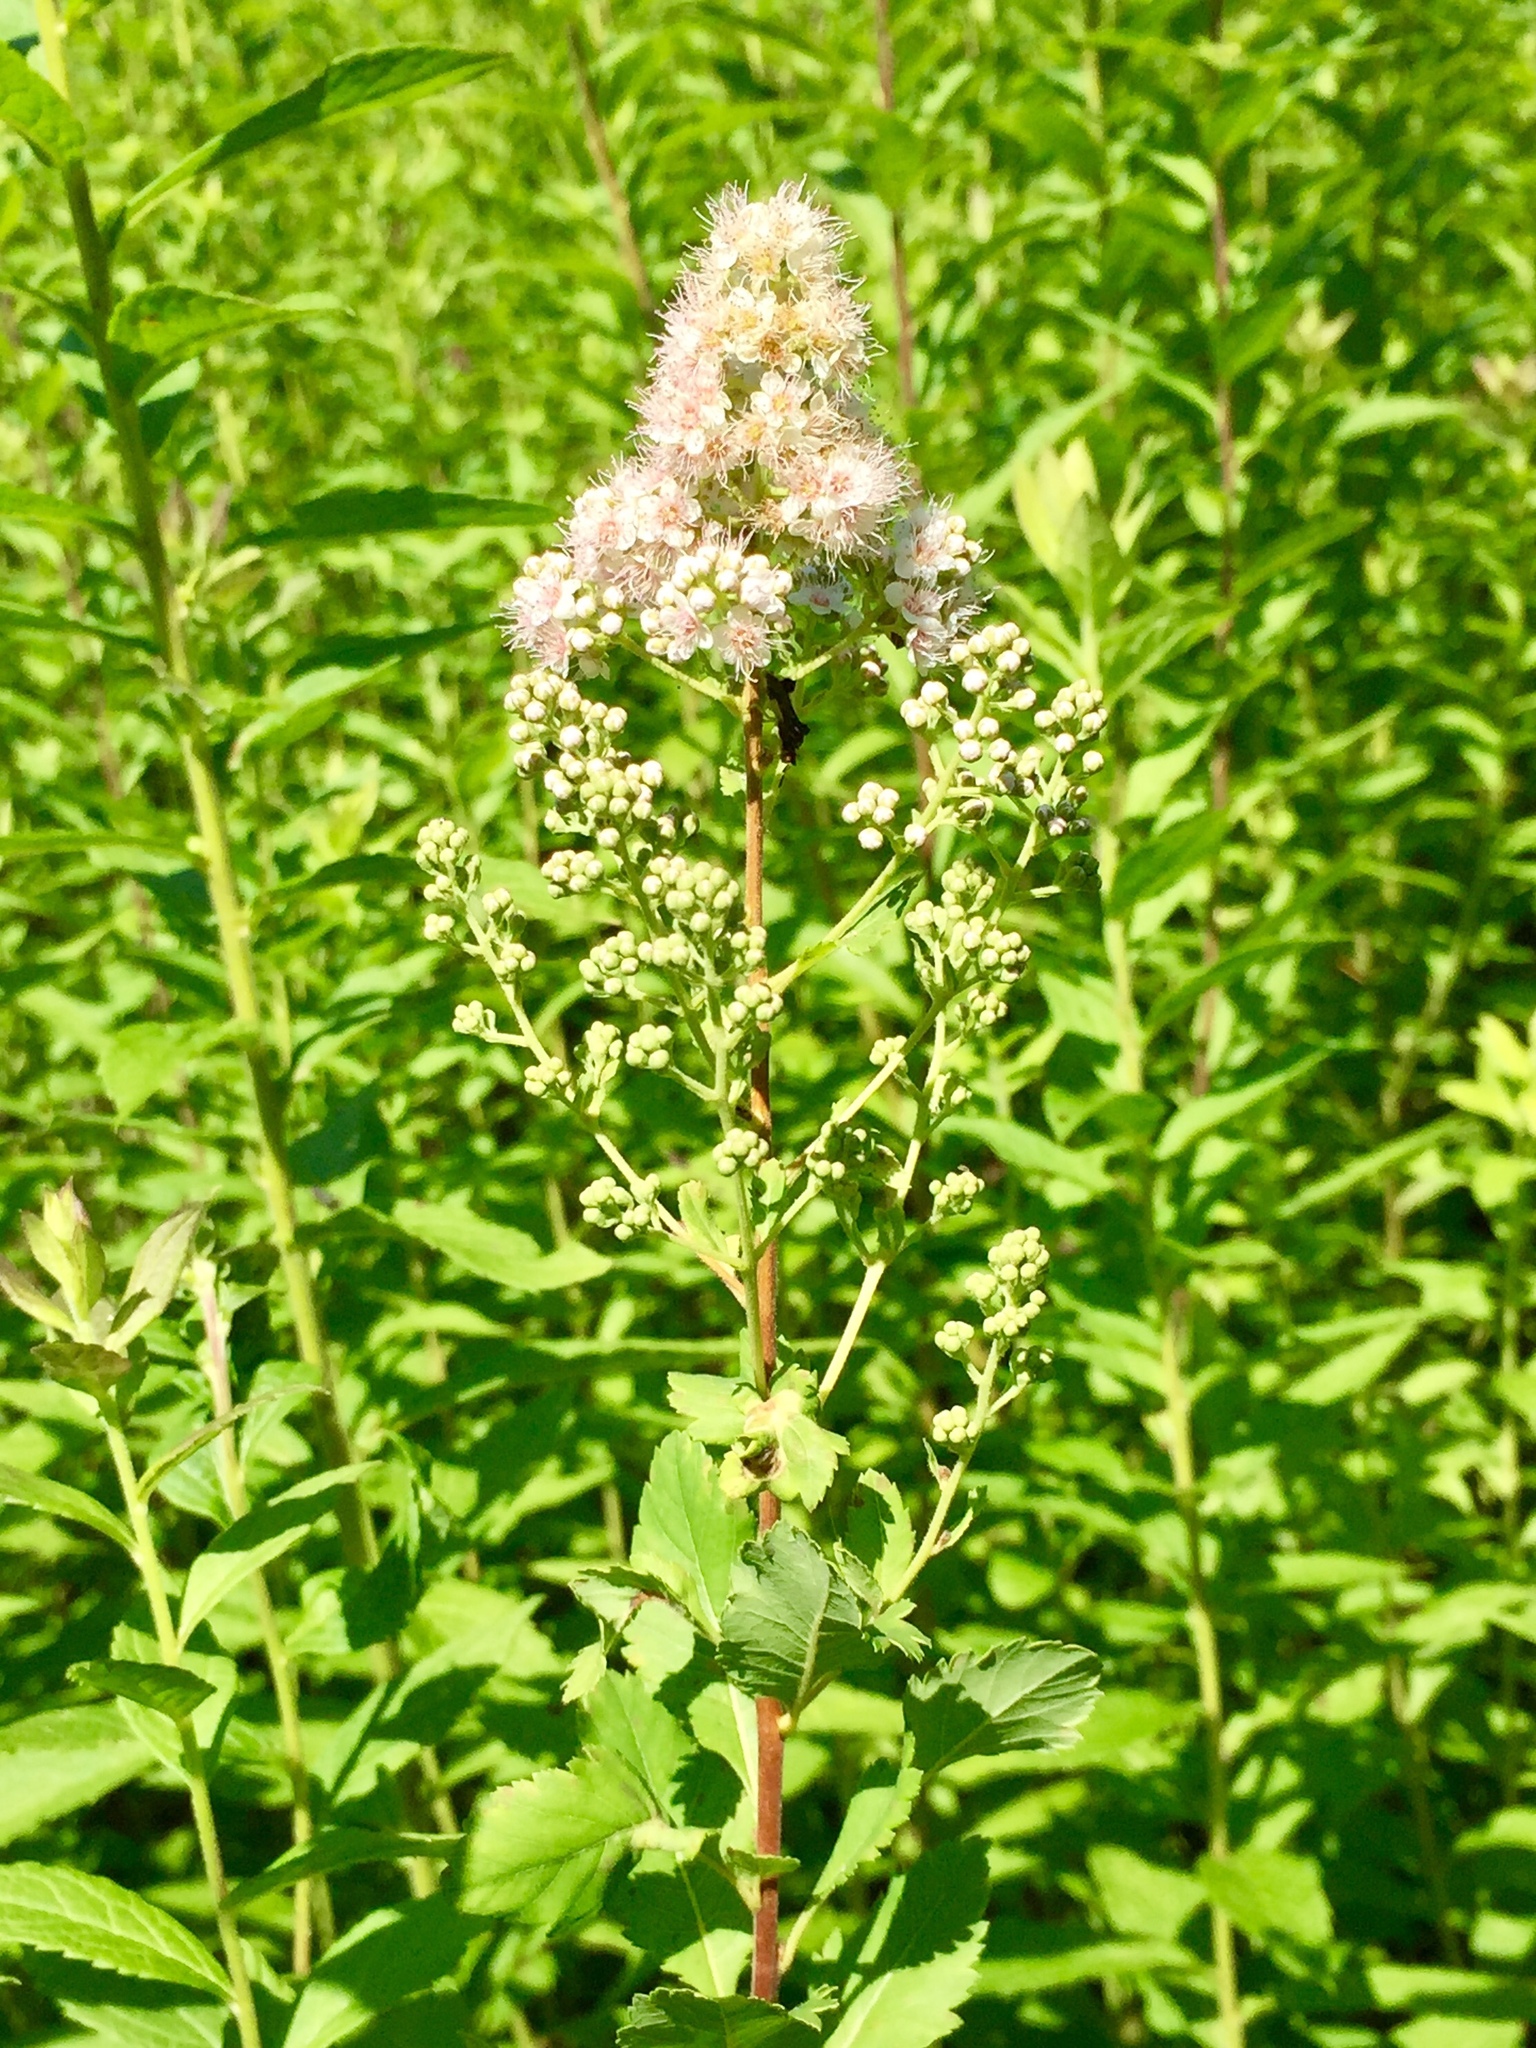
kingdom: Plantae
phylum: Tracheophyta
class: Magnoliopsida
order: Rosales
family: Rosaceae
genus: Spiraea
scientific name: Spiraea alba
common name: Pale bridewort
